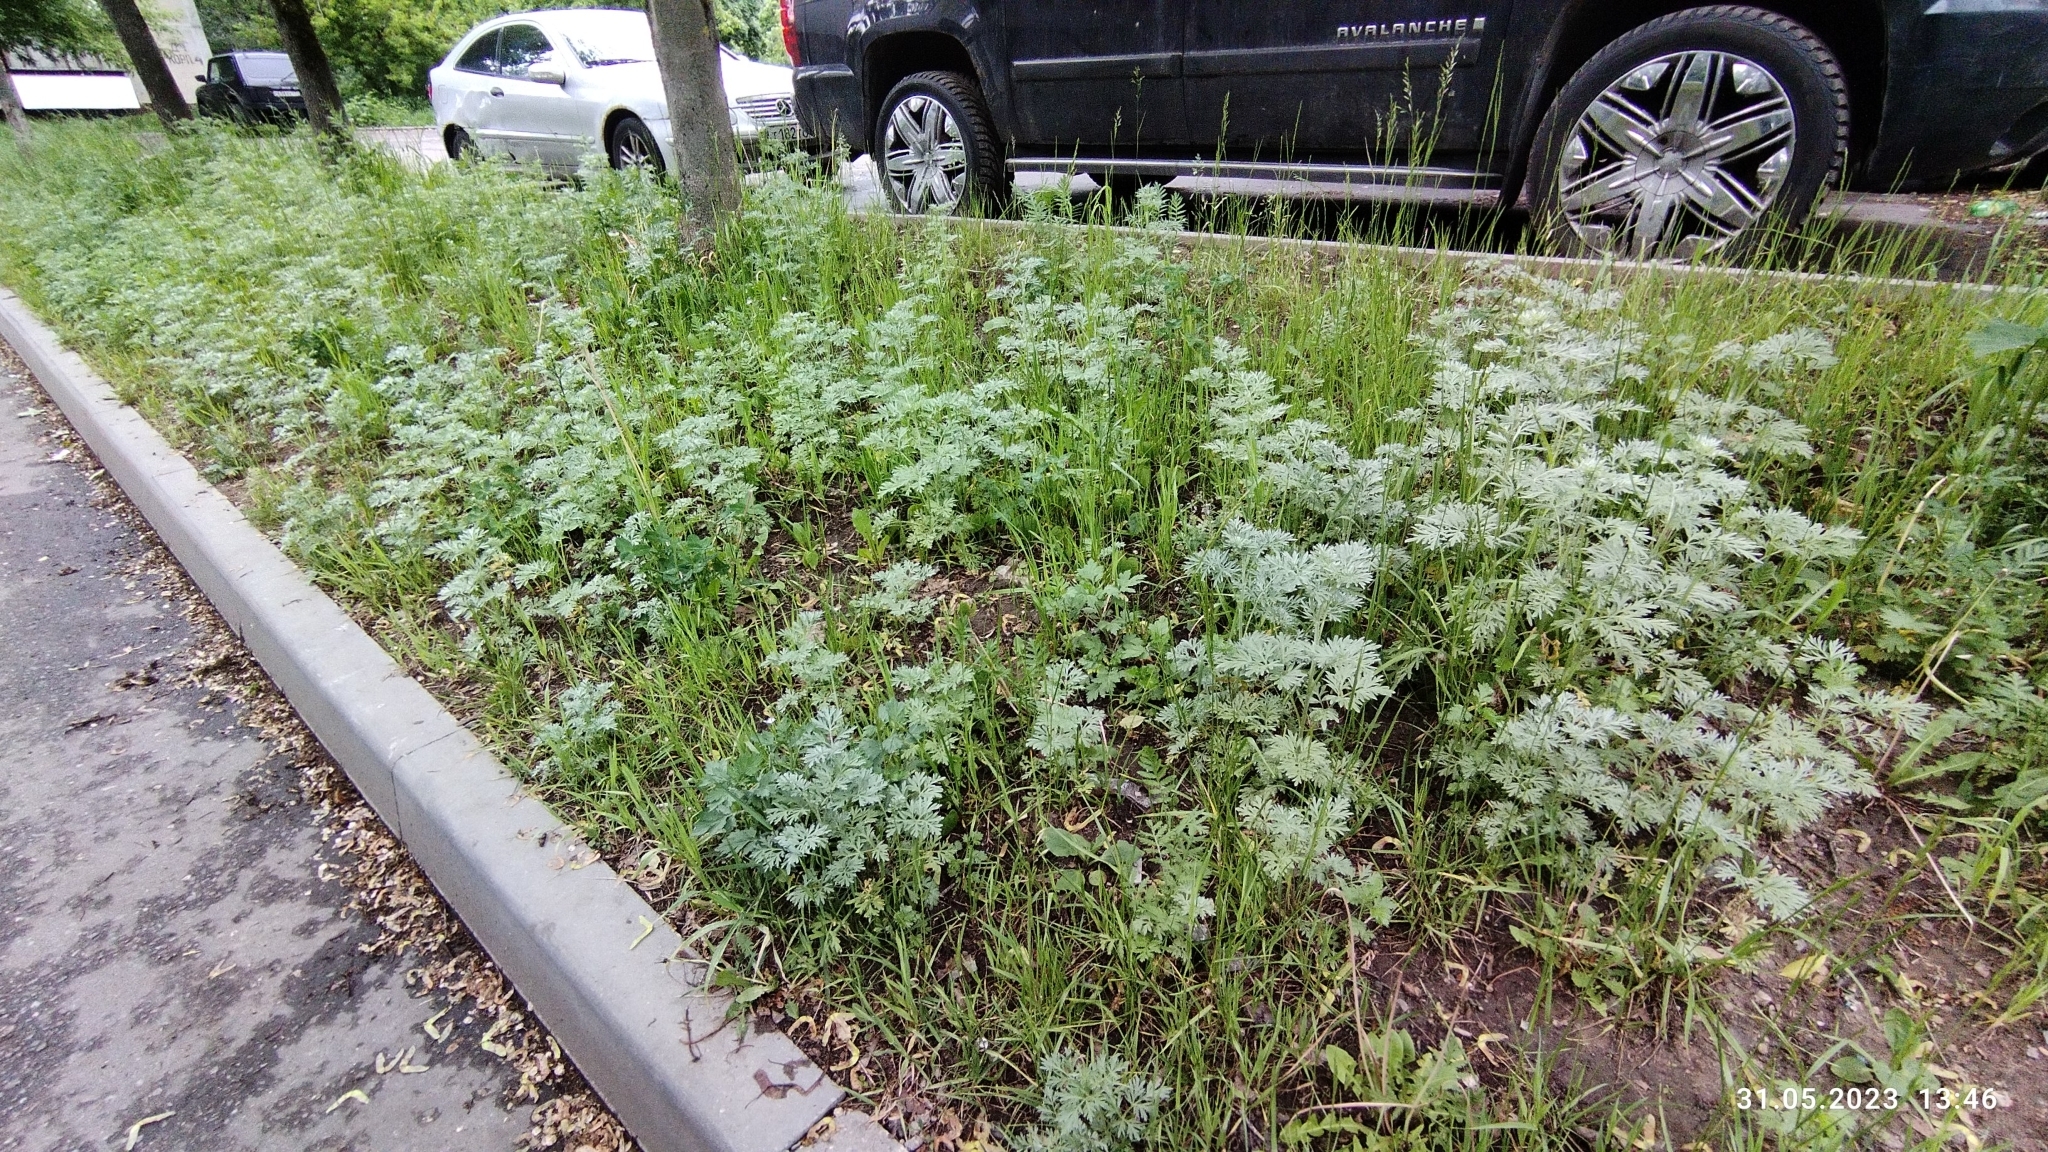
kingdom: Plantae
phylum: Tracheophyta
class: Magnoliopsida
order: Asterales
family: Asteraceae
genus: Artemisia
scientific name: Artemisia absinthium
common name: Wormwood
